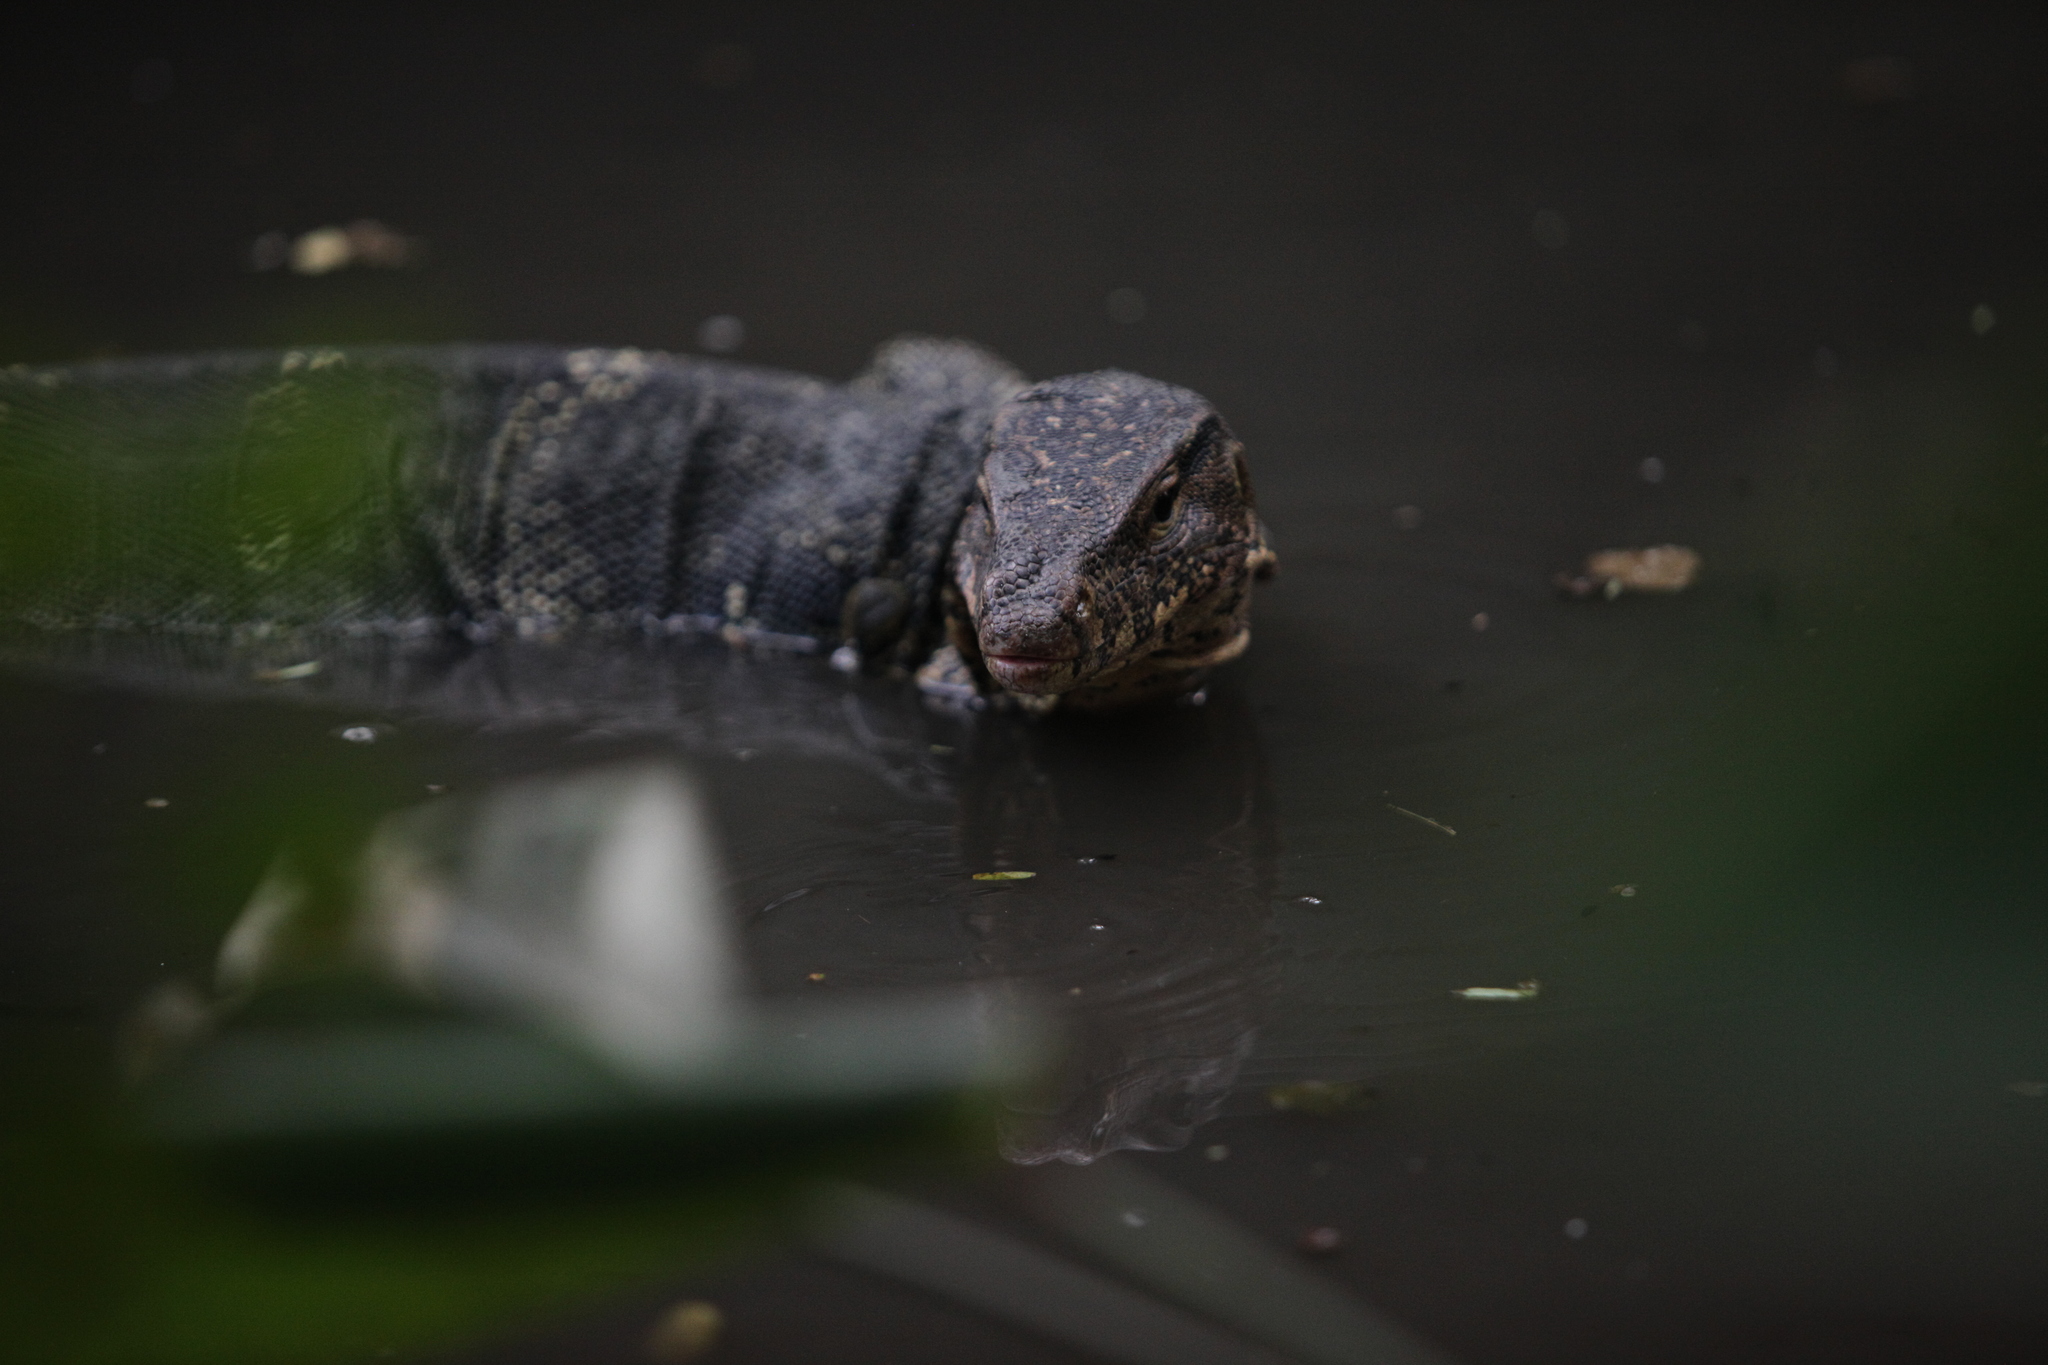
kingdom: Animalia
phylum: Chordata
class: Squamata
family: Varanidae
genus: Varanus
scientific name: Varanus salvator
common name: Common water monitor
